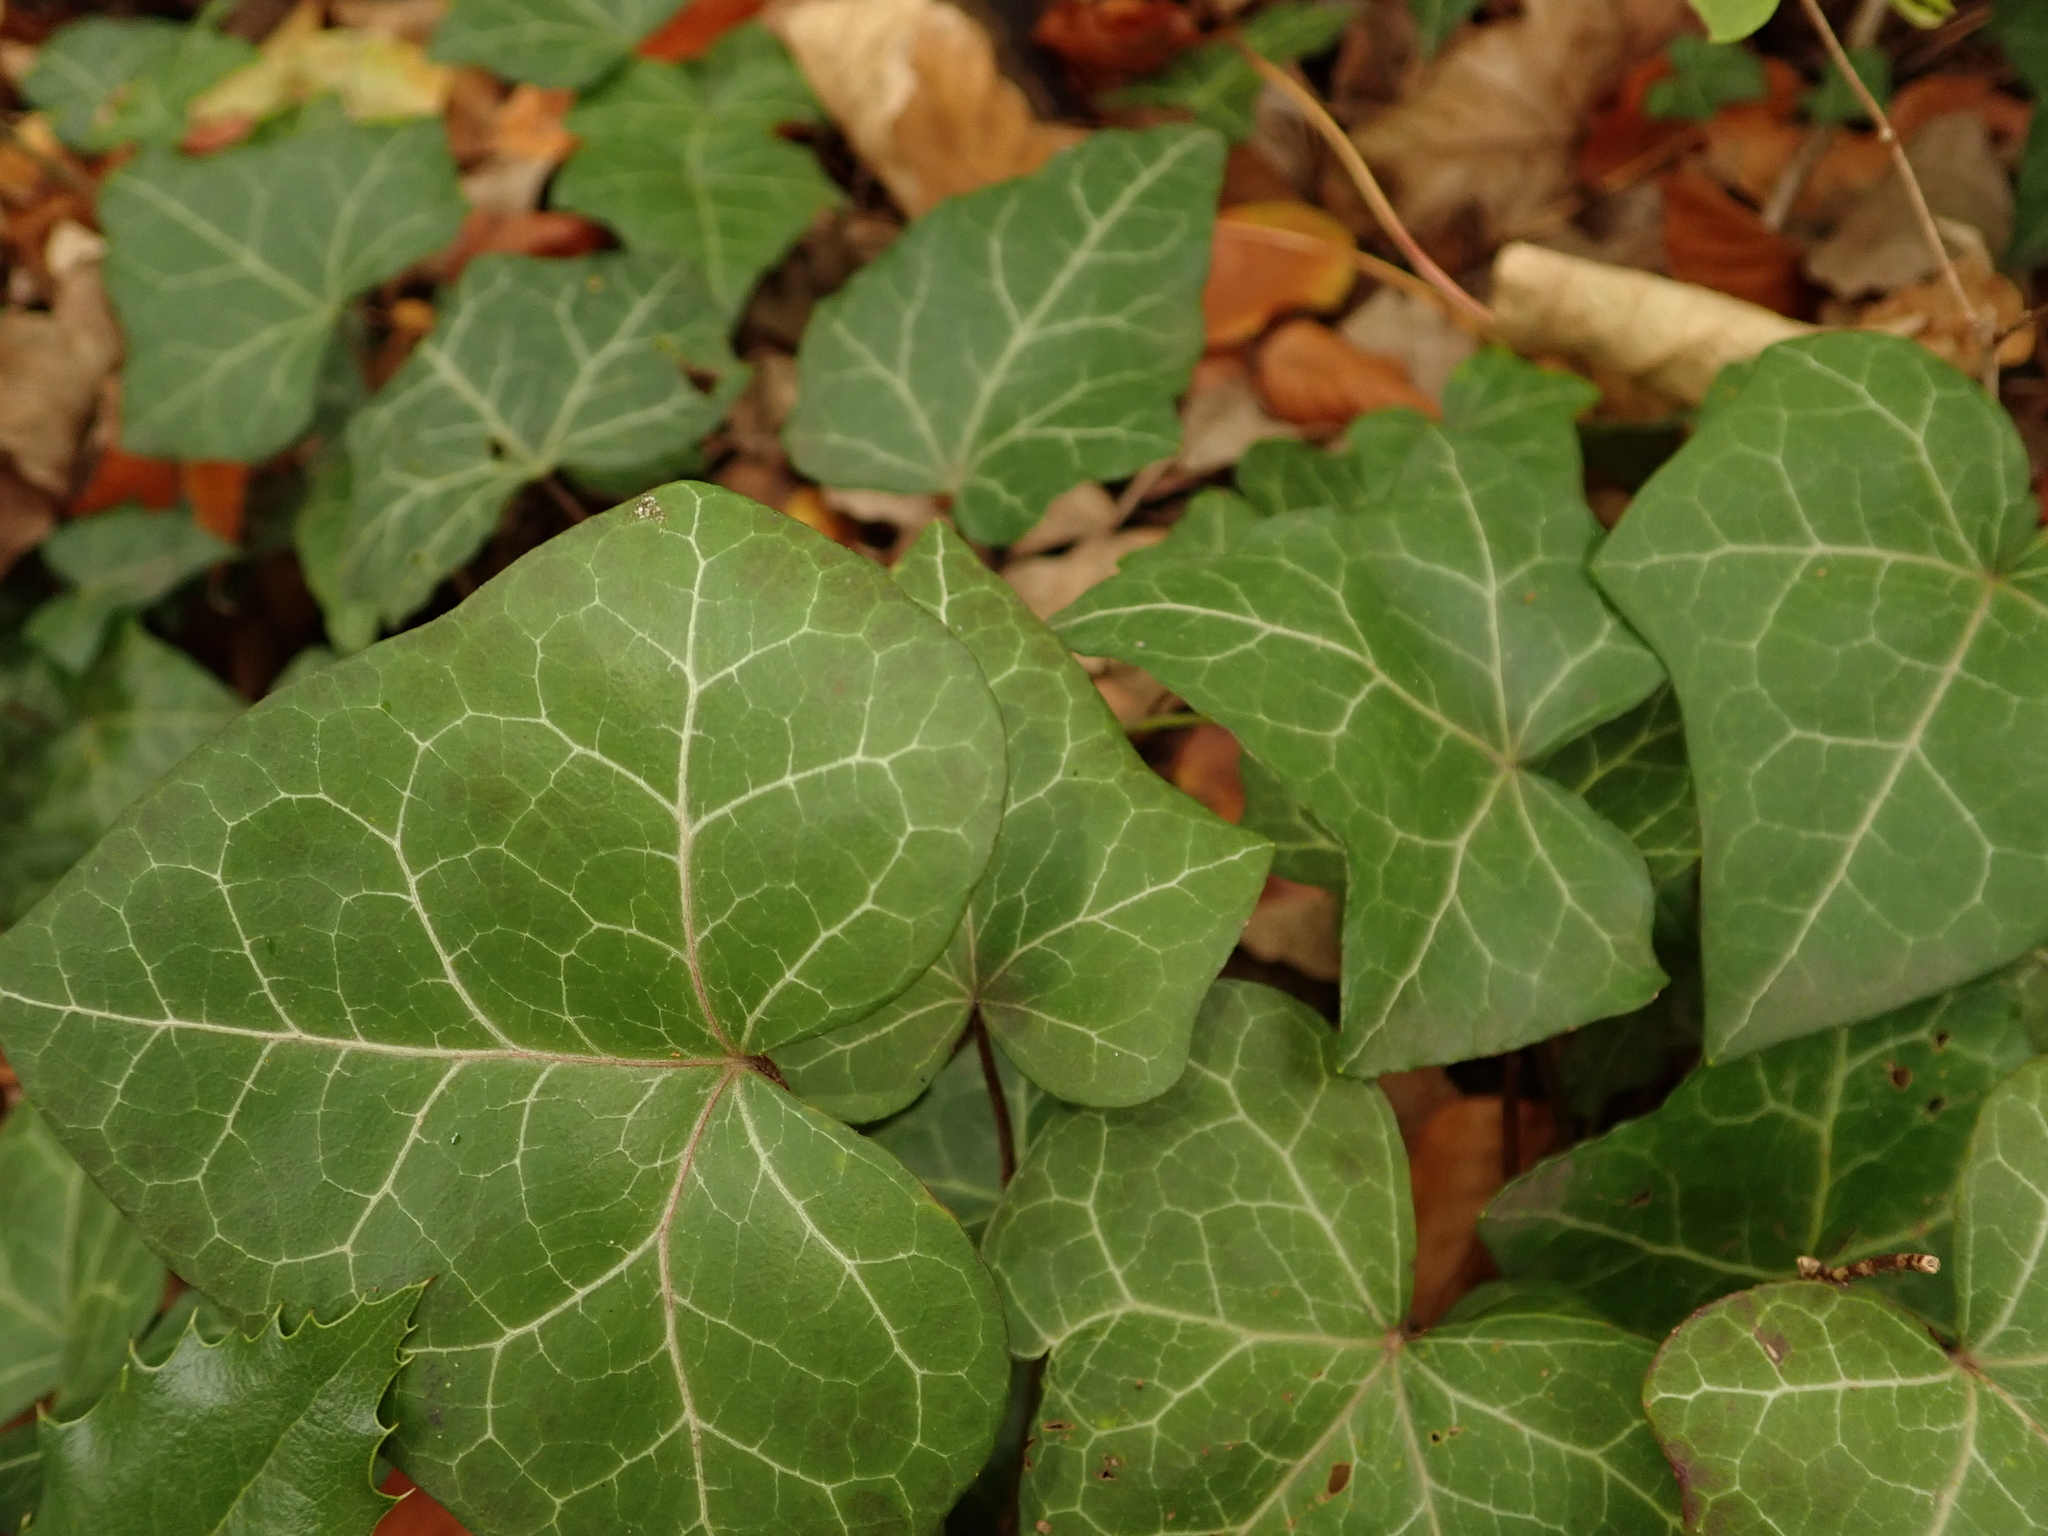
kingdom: Plantae
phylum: Tracheophyta
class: Magnoliopsida
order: Apiales
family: Araliaceae
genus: Hedera
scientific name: Hedera helix
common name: Ivy
